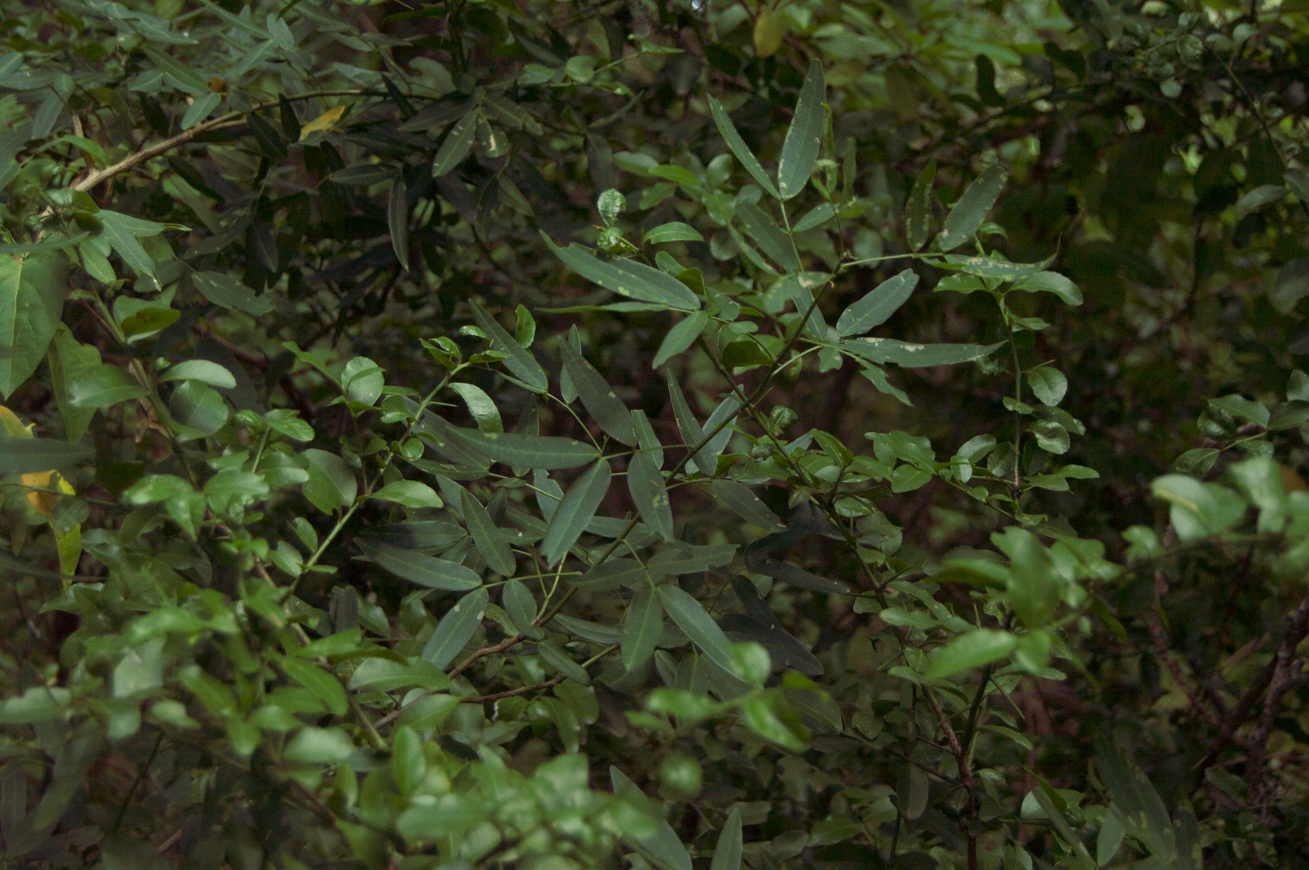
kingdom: Plantae
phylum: Tracheophyta
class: Magnoliopsida
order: Fabales
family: Fabaceae
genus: Senna
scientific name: Senna corymbosa
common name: Argentine senna
